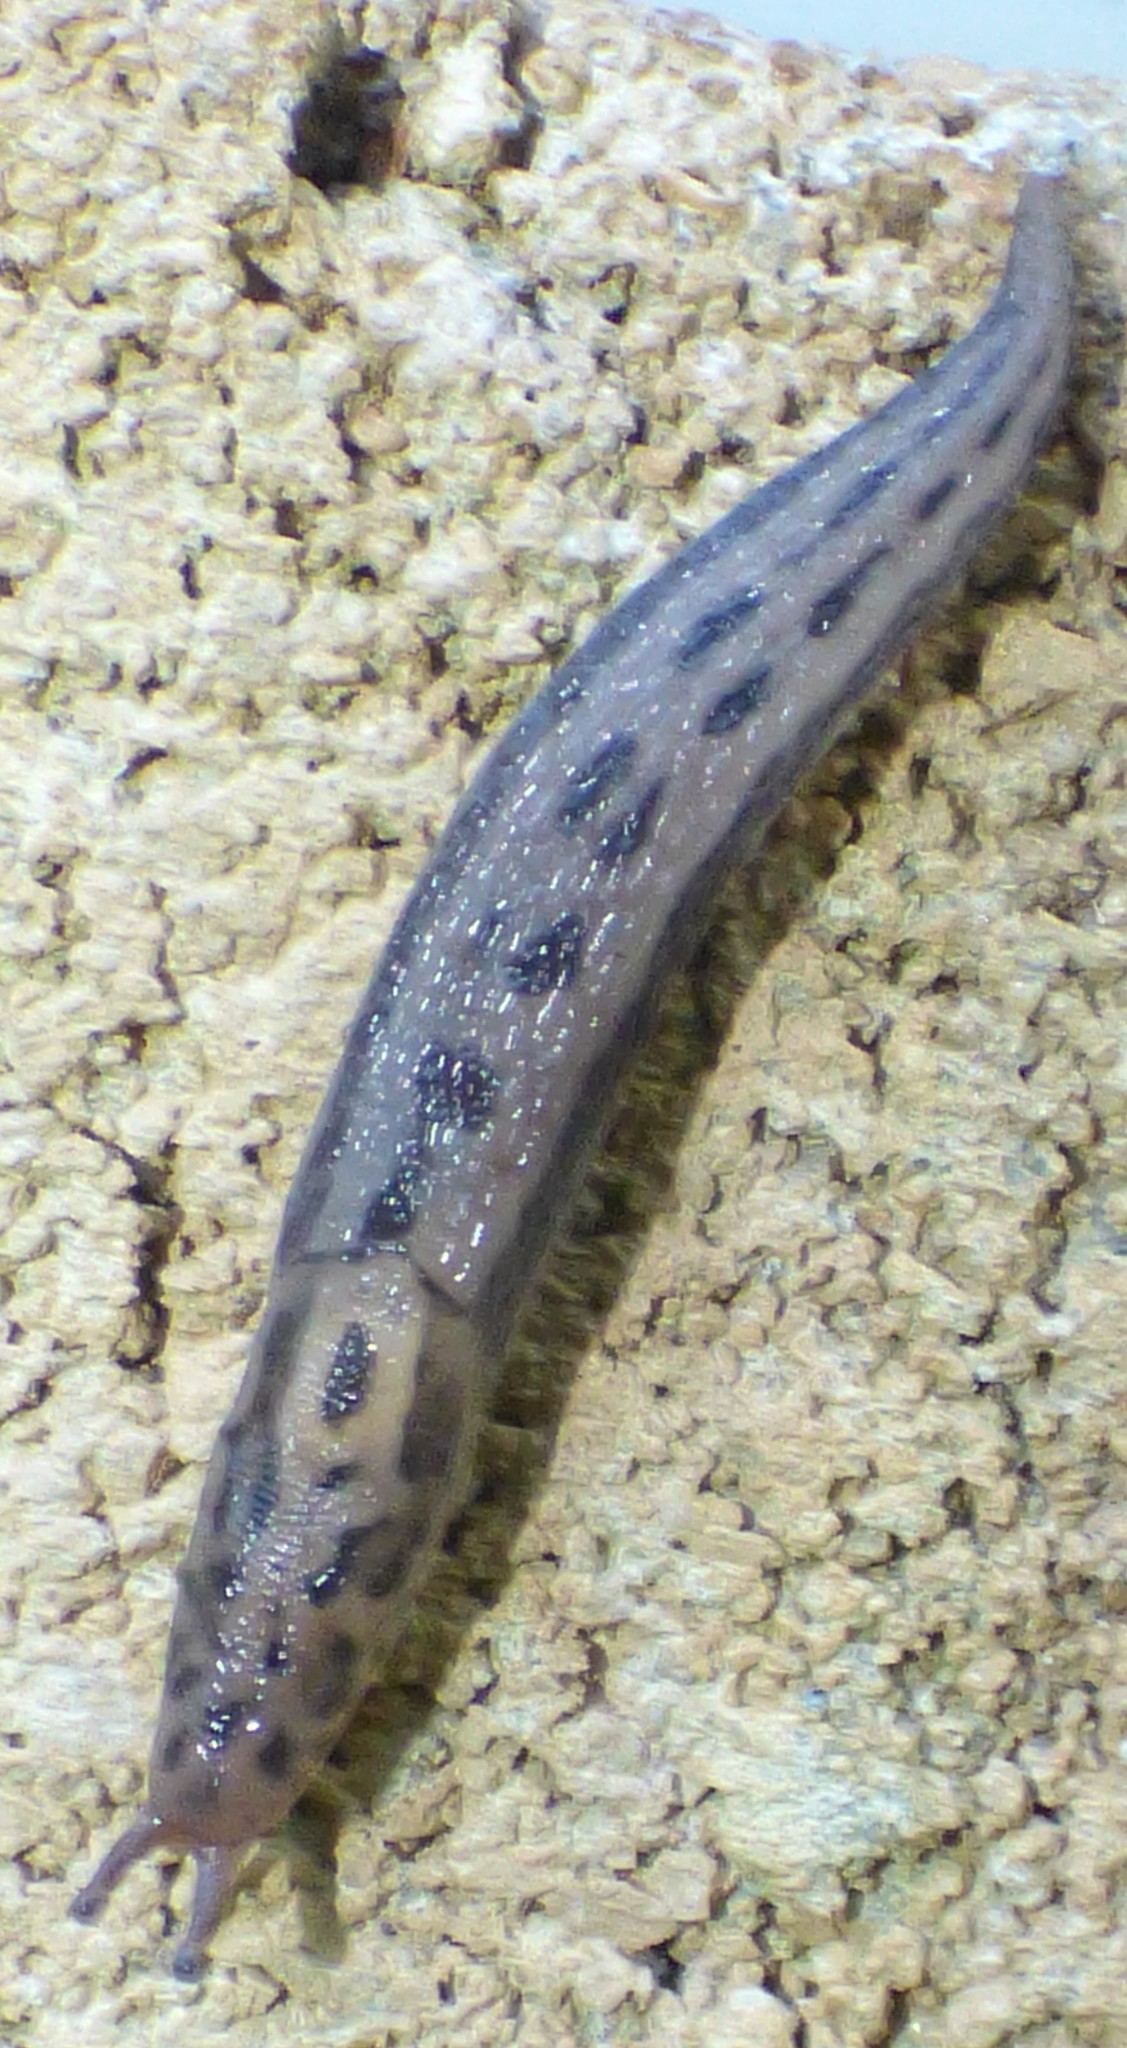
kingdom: Animalia
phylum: Mollusca
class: Gastropoda
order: Stylommatophora
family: Limacidae
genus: Limax
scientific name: Limax maximus
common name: Great grey slug
